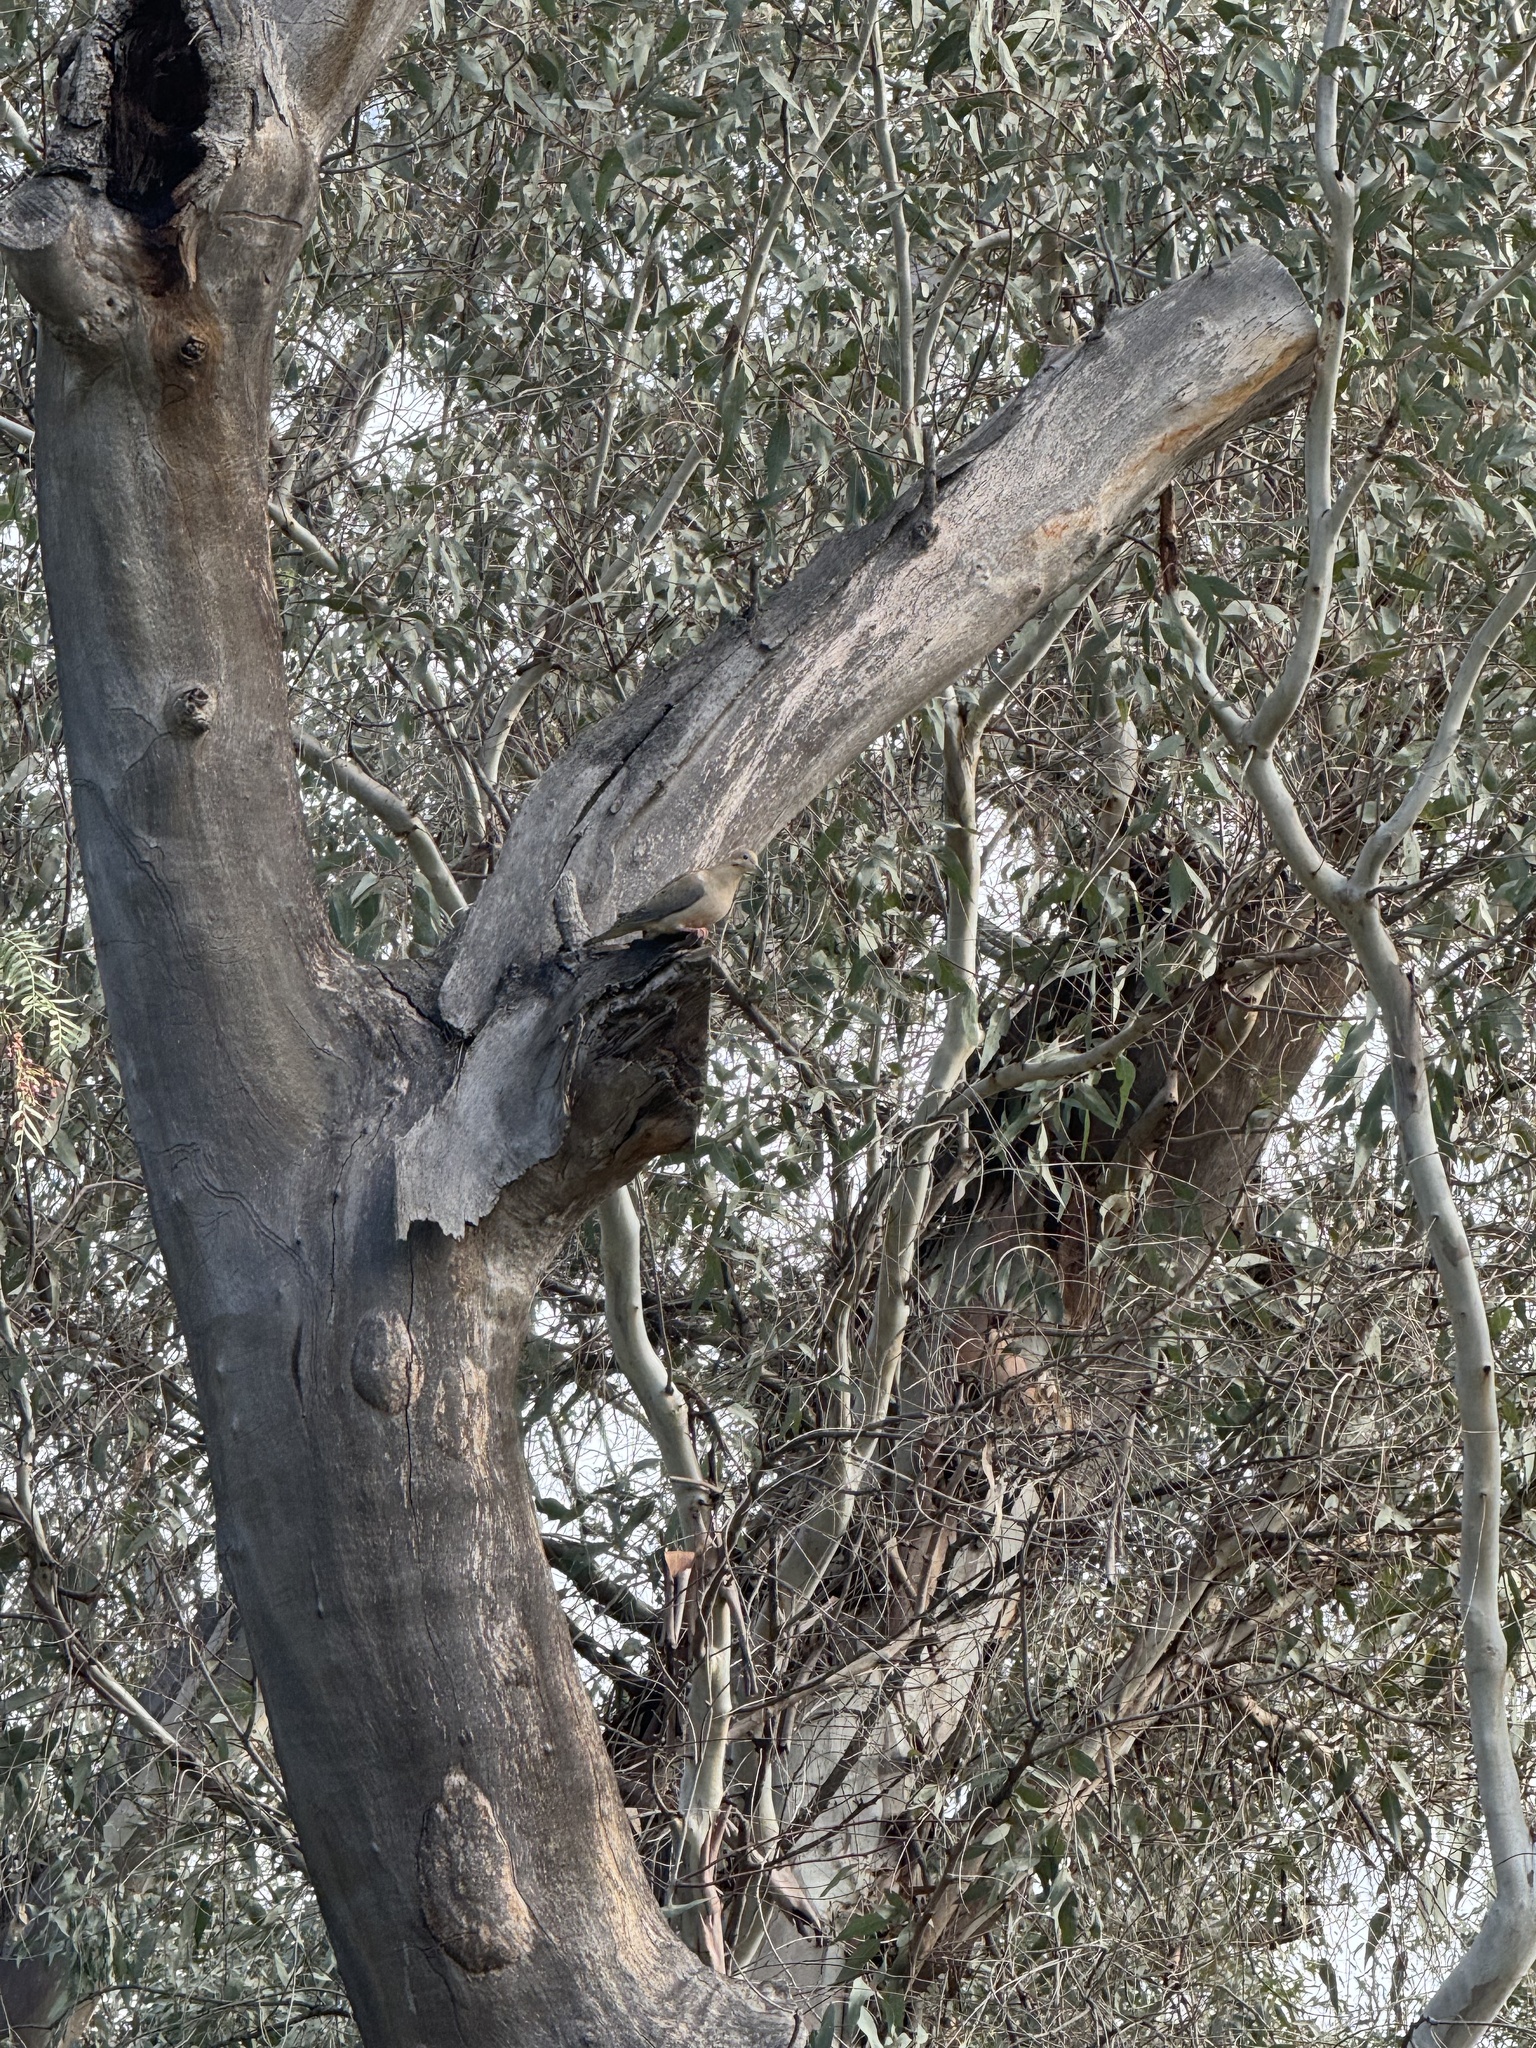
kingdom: Animalia
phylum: Chordata
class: Aves
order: Columbiformes
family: Columbidae
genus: Zenaida
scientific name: Zenaida macroura
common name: Mourning dove
